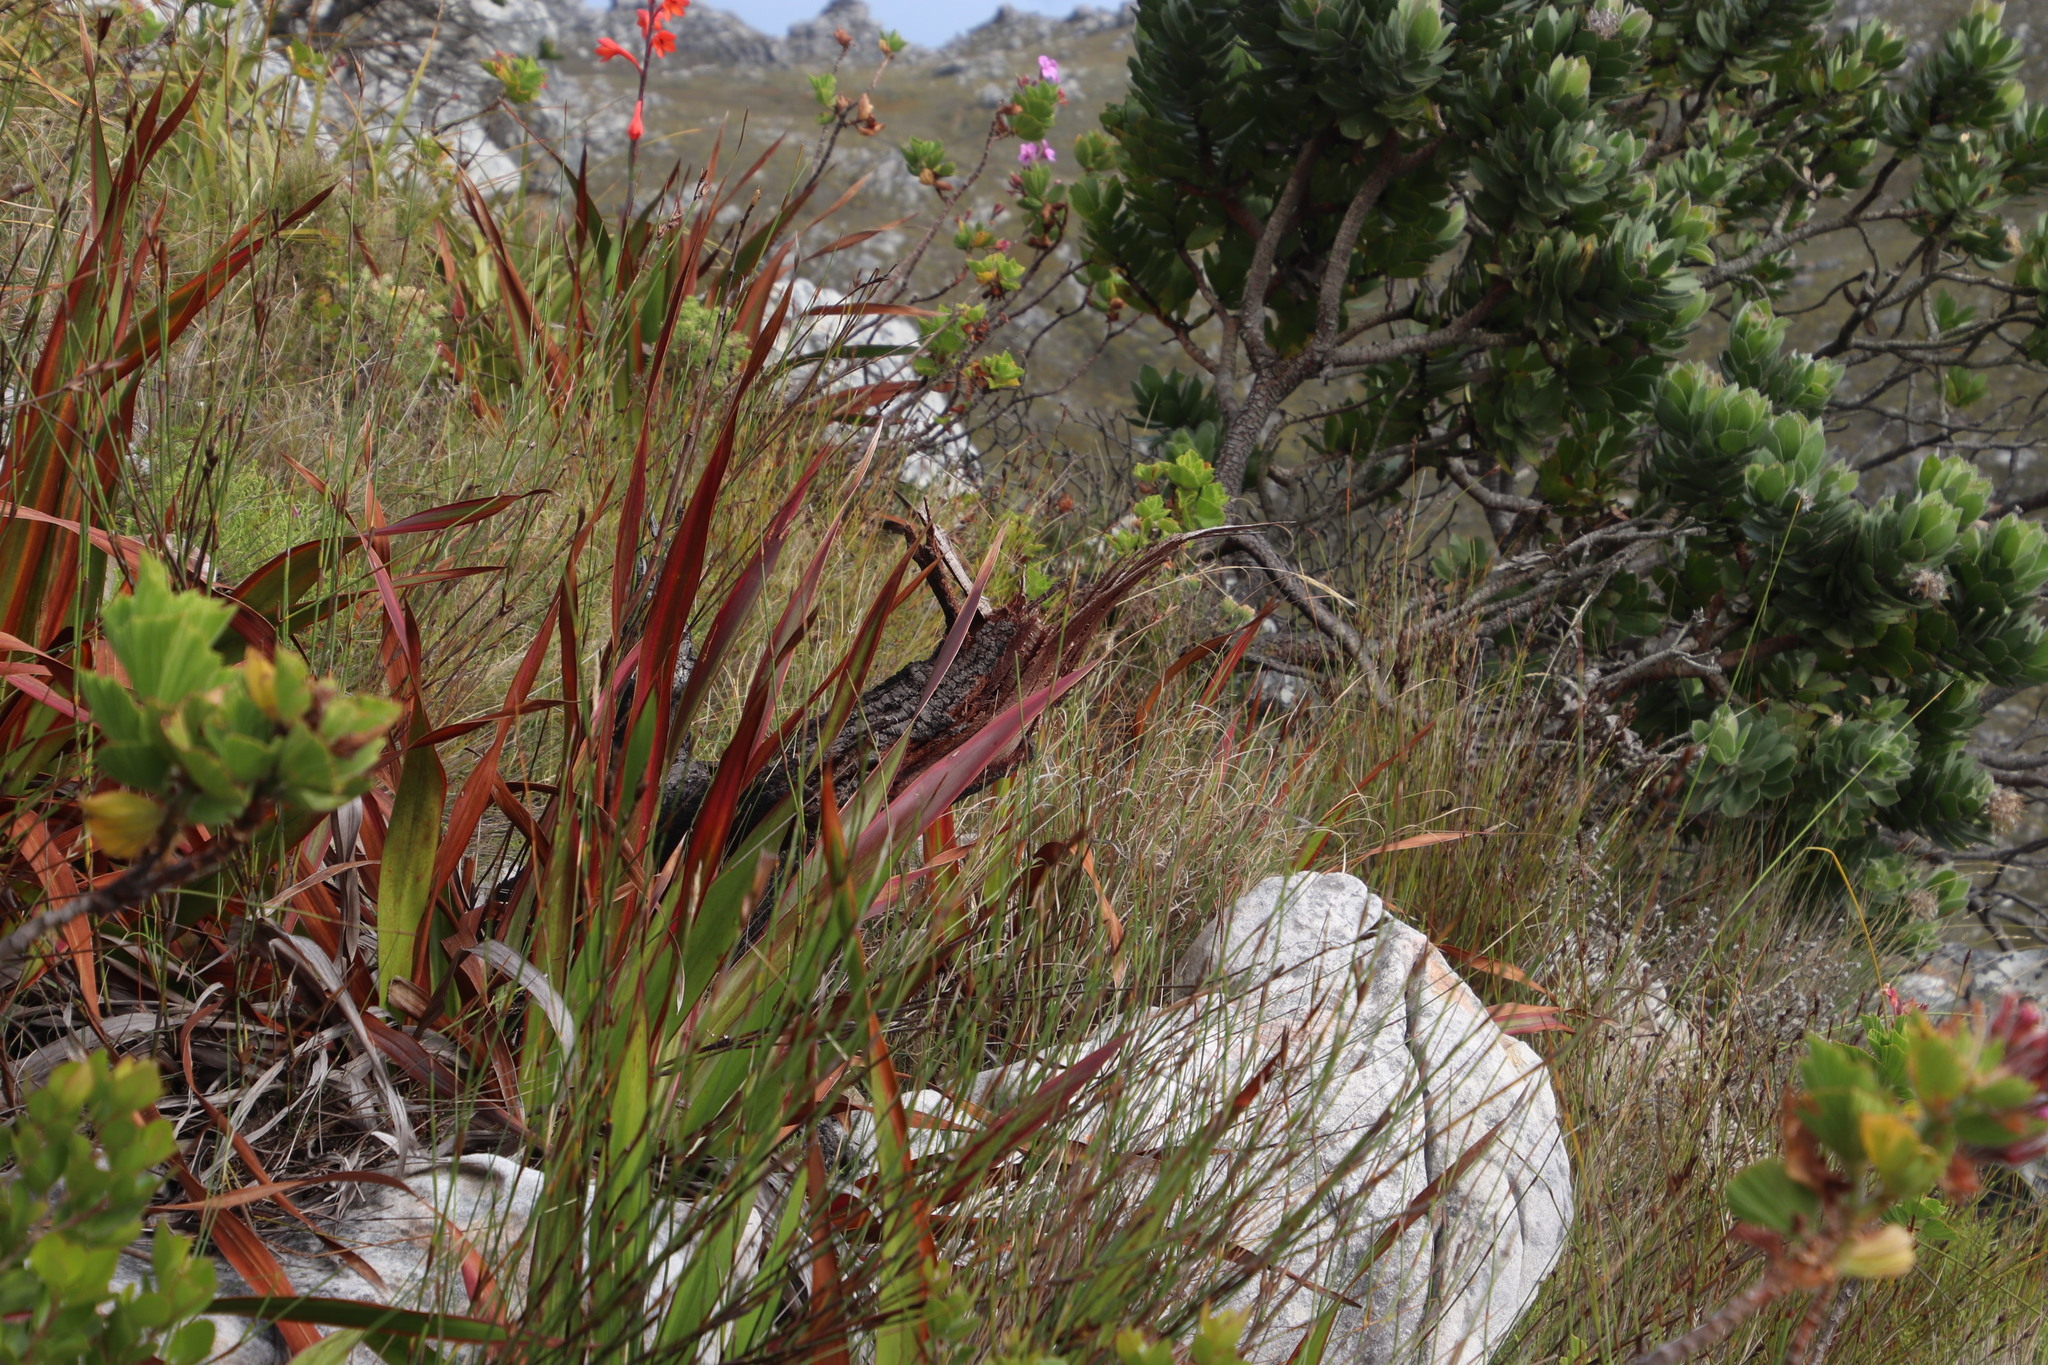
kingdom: Plantae
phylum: Tracheophyta
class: Magnoliopsida
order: Proteales
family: Proteaceae
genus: Leucospermum
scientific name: Leucospermum conocarpodendron
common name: Tree pincushion
